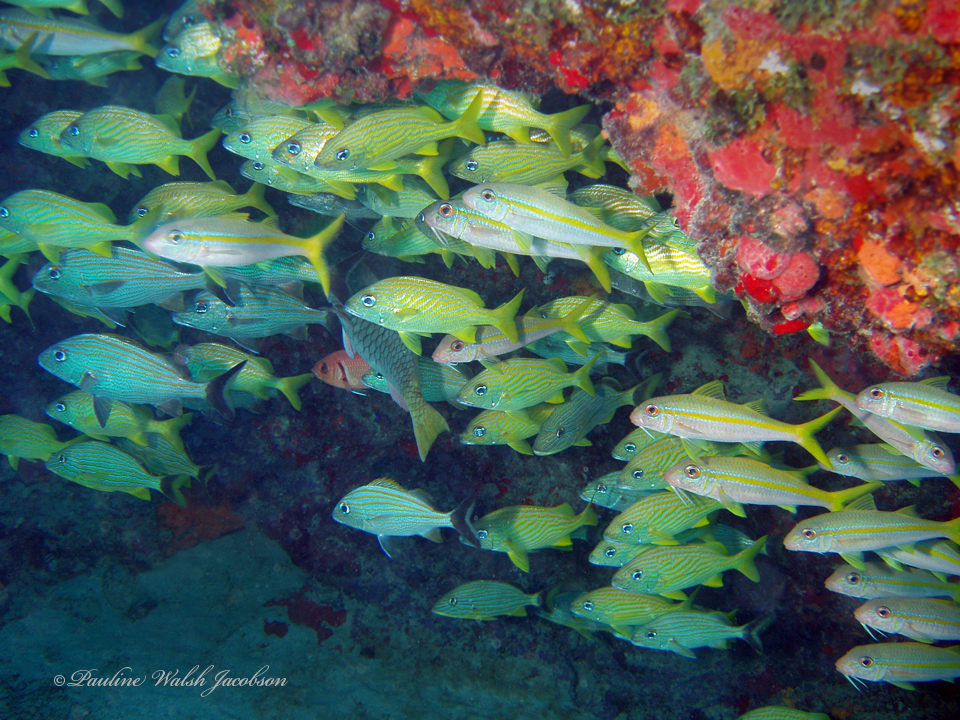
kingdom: Animalia
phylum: Chordata
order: Perciformes
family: Mullidae
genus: Mulloidichthys
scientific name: Mulloidichthys martinicus
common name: Yellow goatfish
